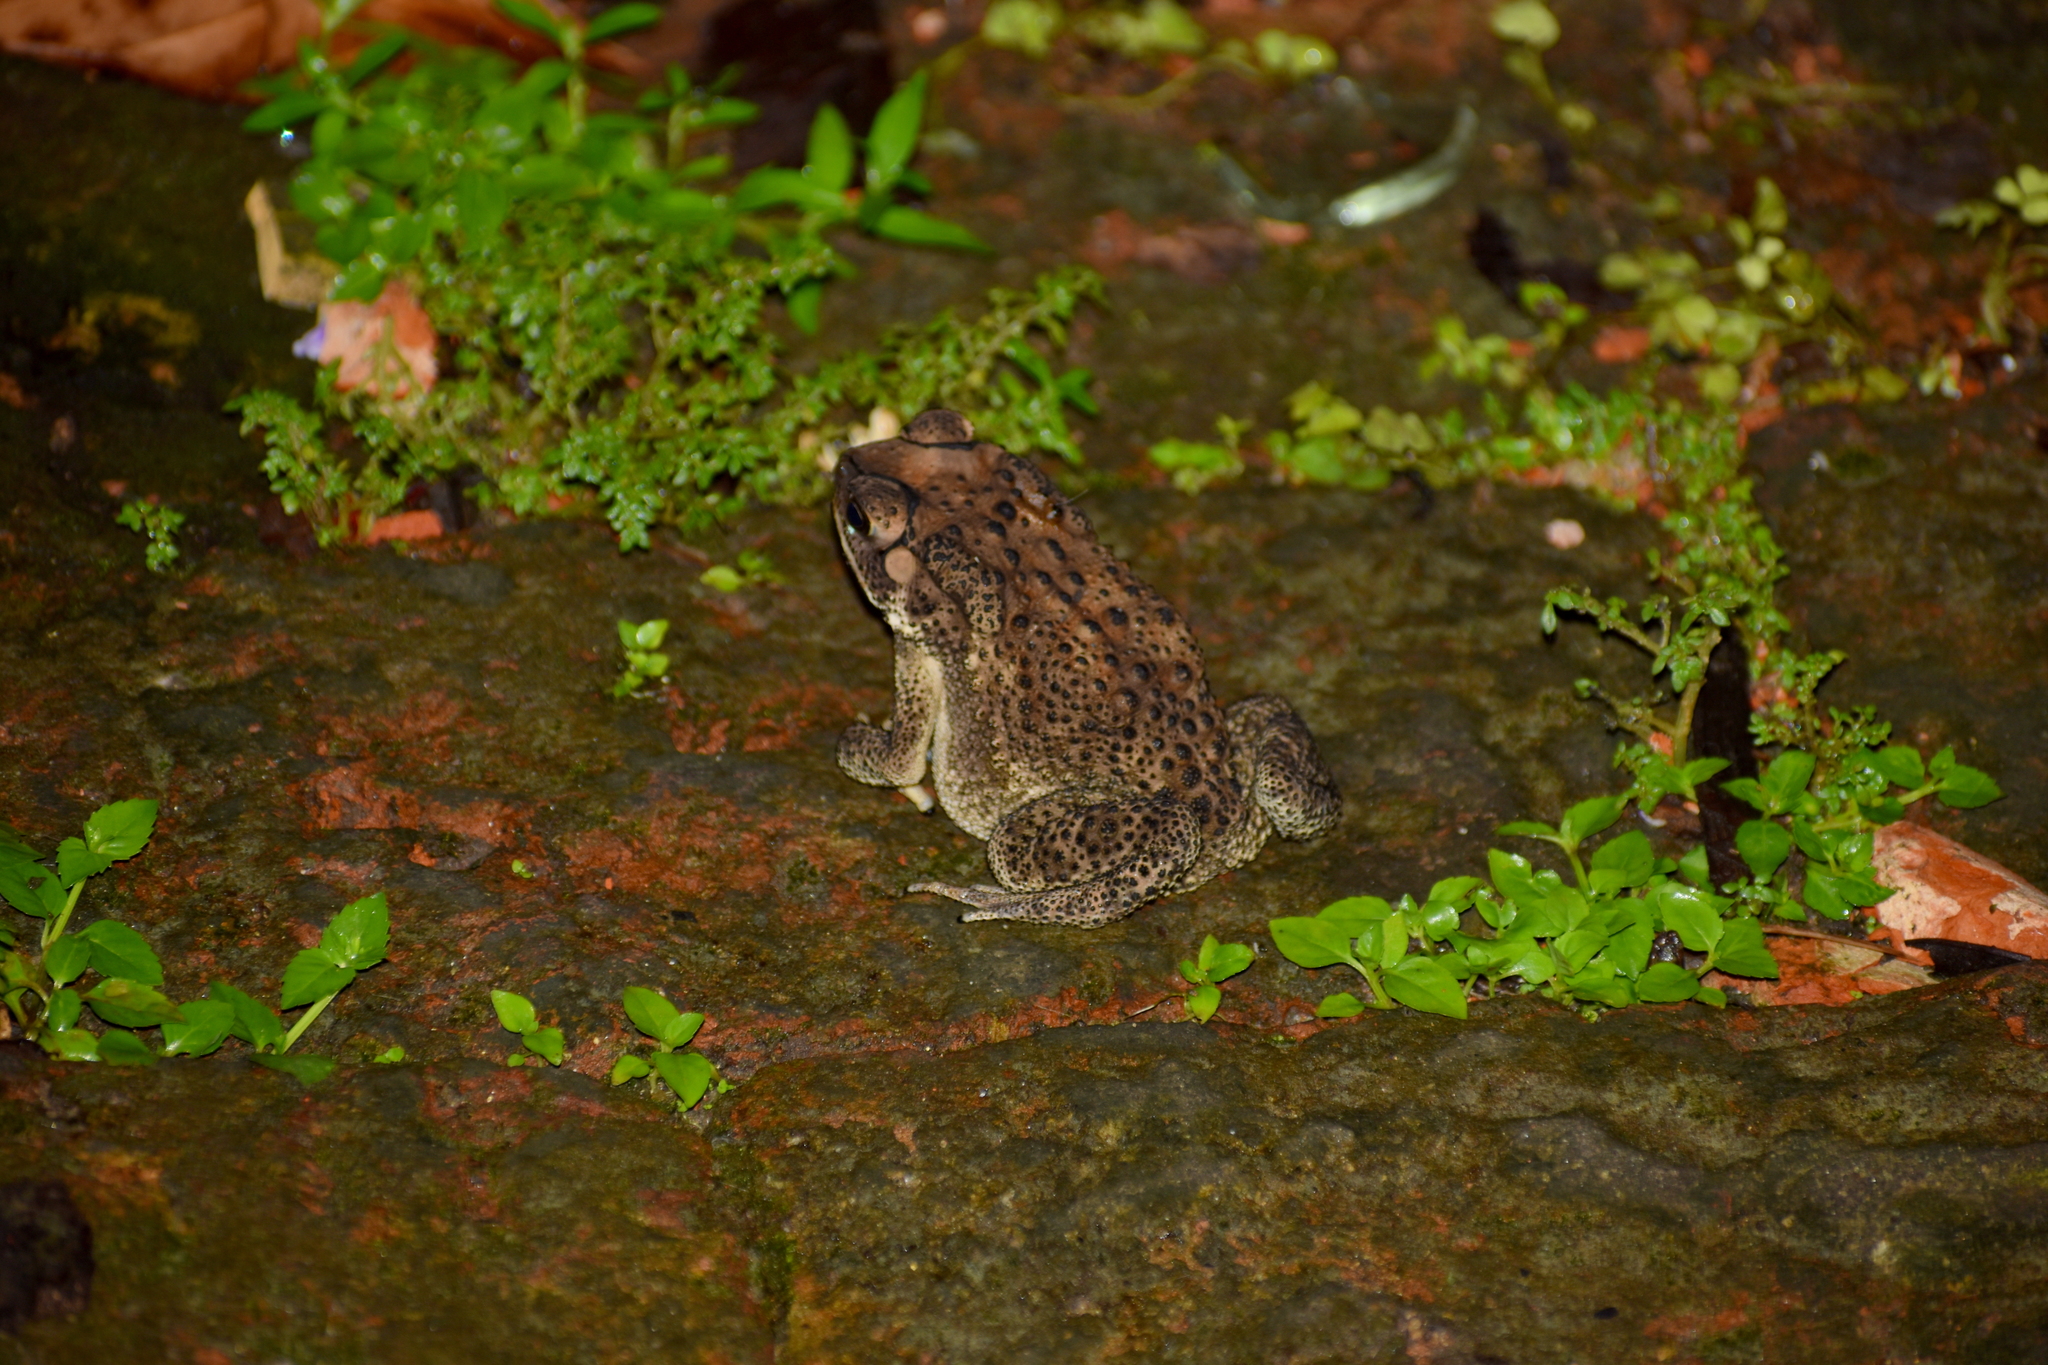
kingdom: Animalia
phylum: Chordata
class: Amphibia
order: Anura
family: Bufonidae
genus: Duttaphrynus
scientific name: Duttaphrynus melanostictus
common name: Common sunda toad
